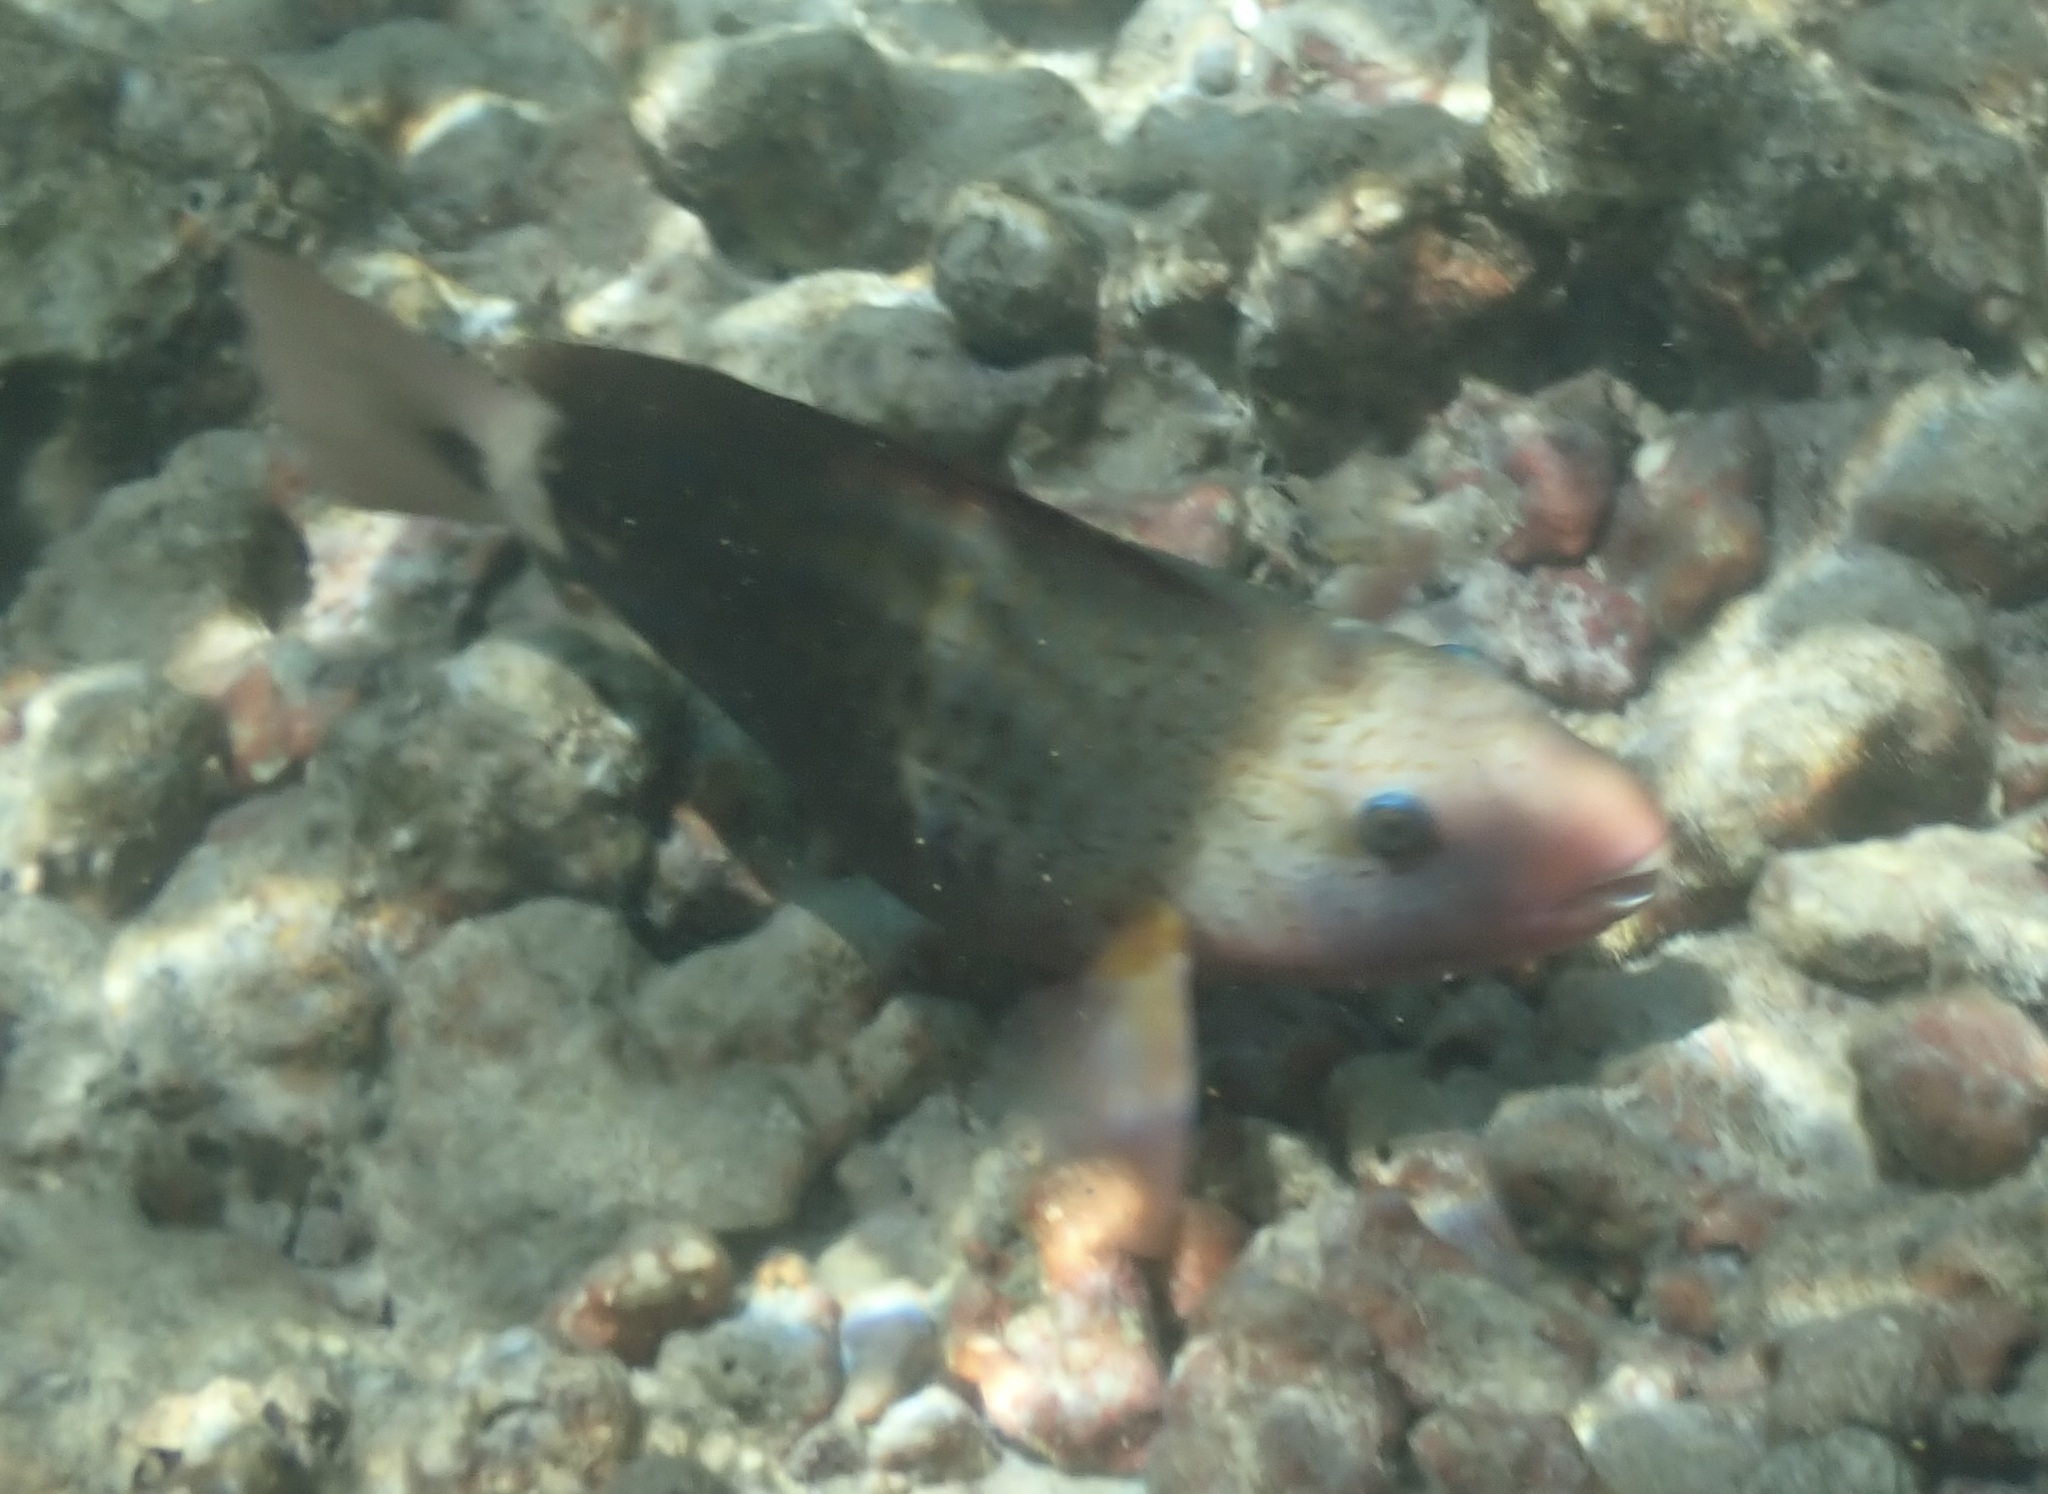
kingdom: Animalia
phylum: Chordata
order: Perciformes
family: Scaridae
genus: Chlorurus
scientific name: Chlorurus spilurus
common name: Bullethead parrotfish
